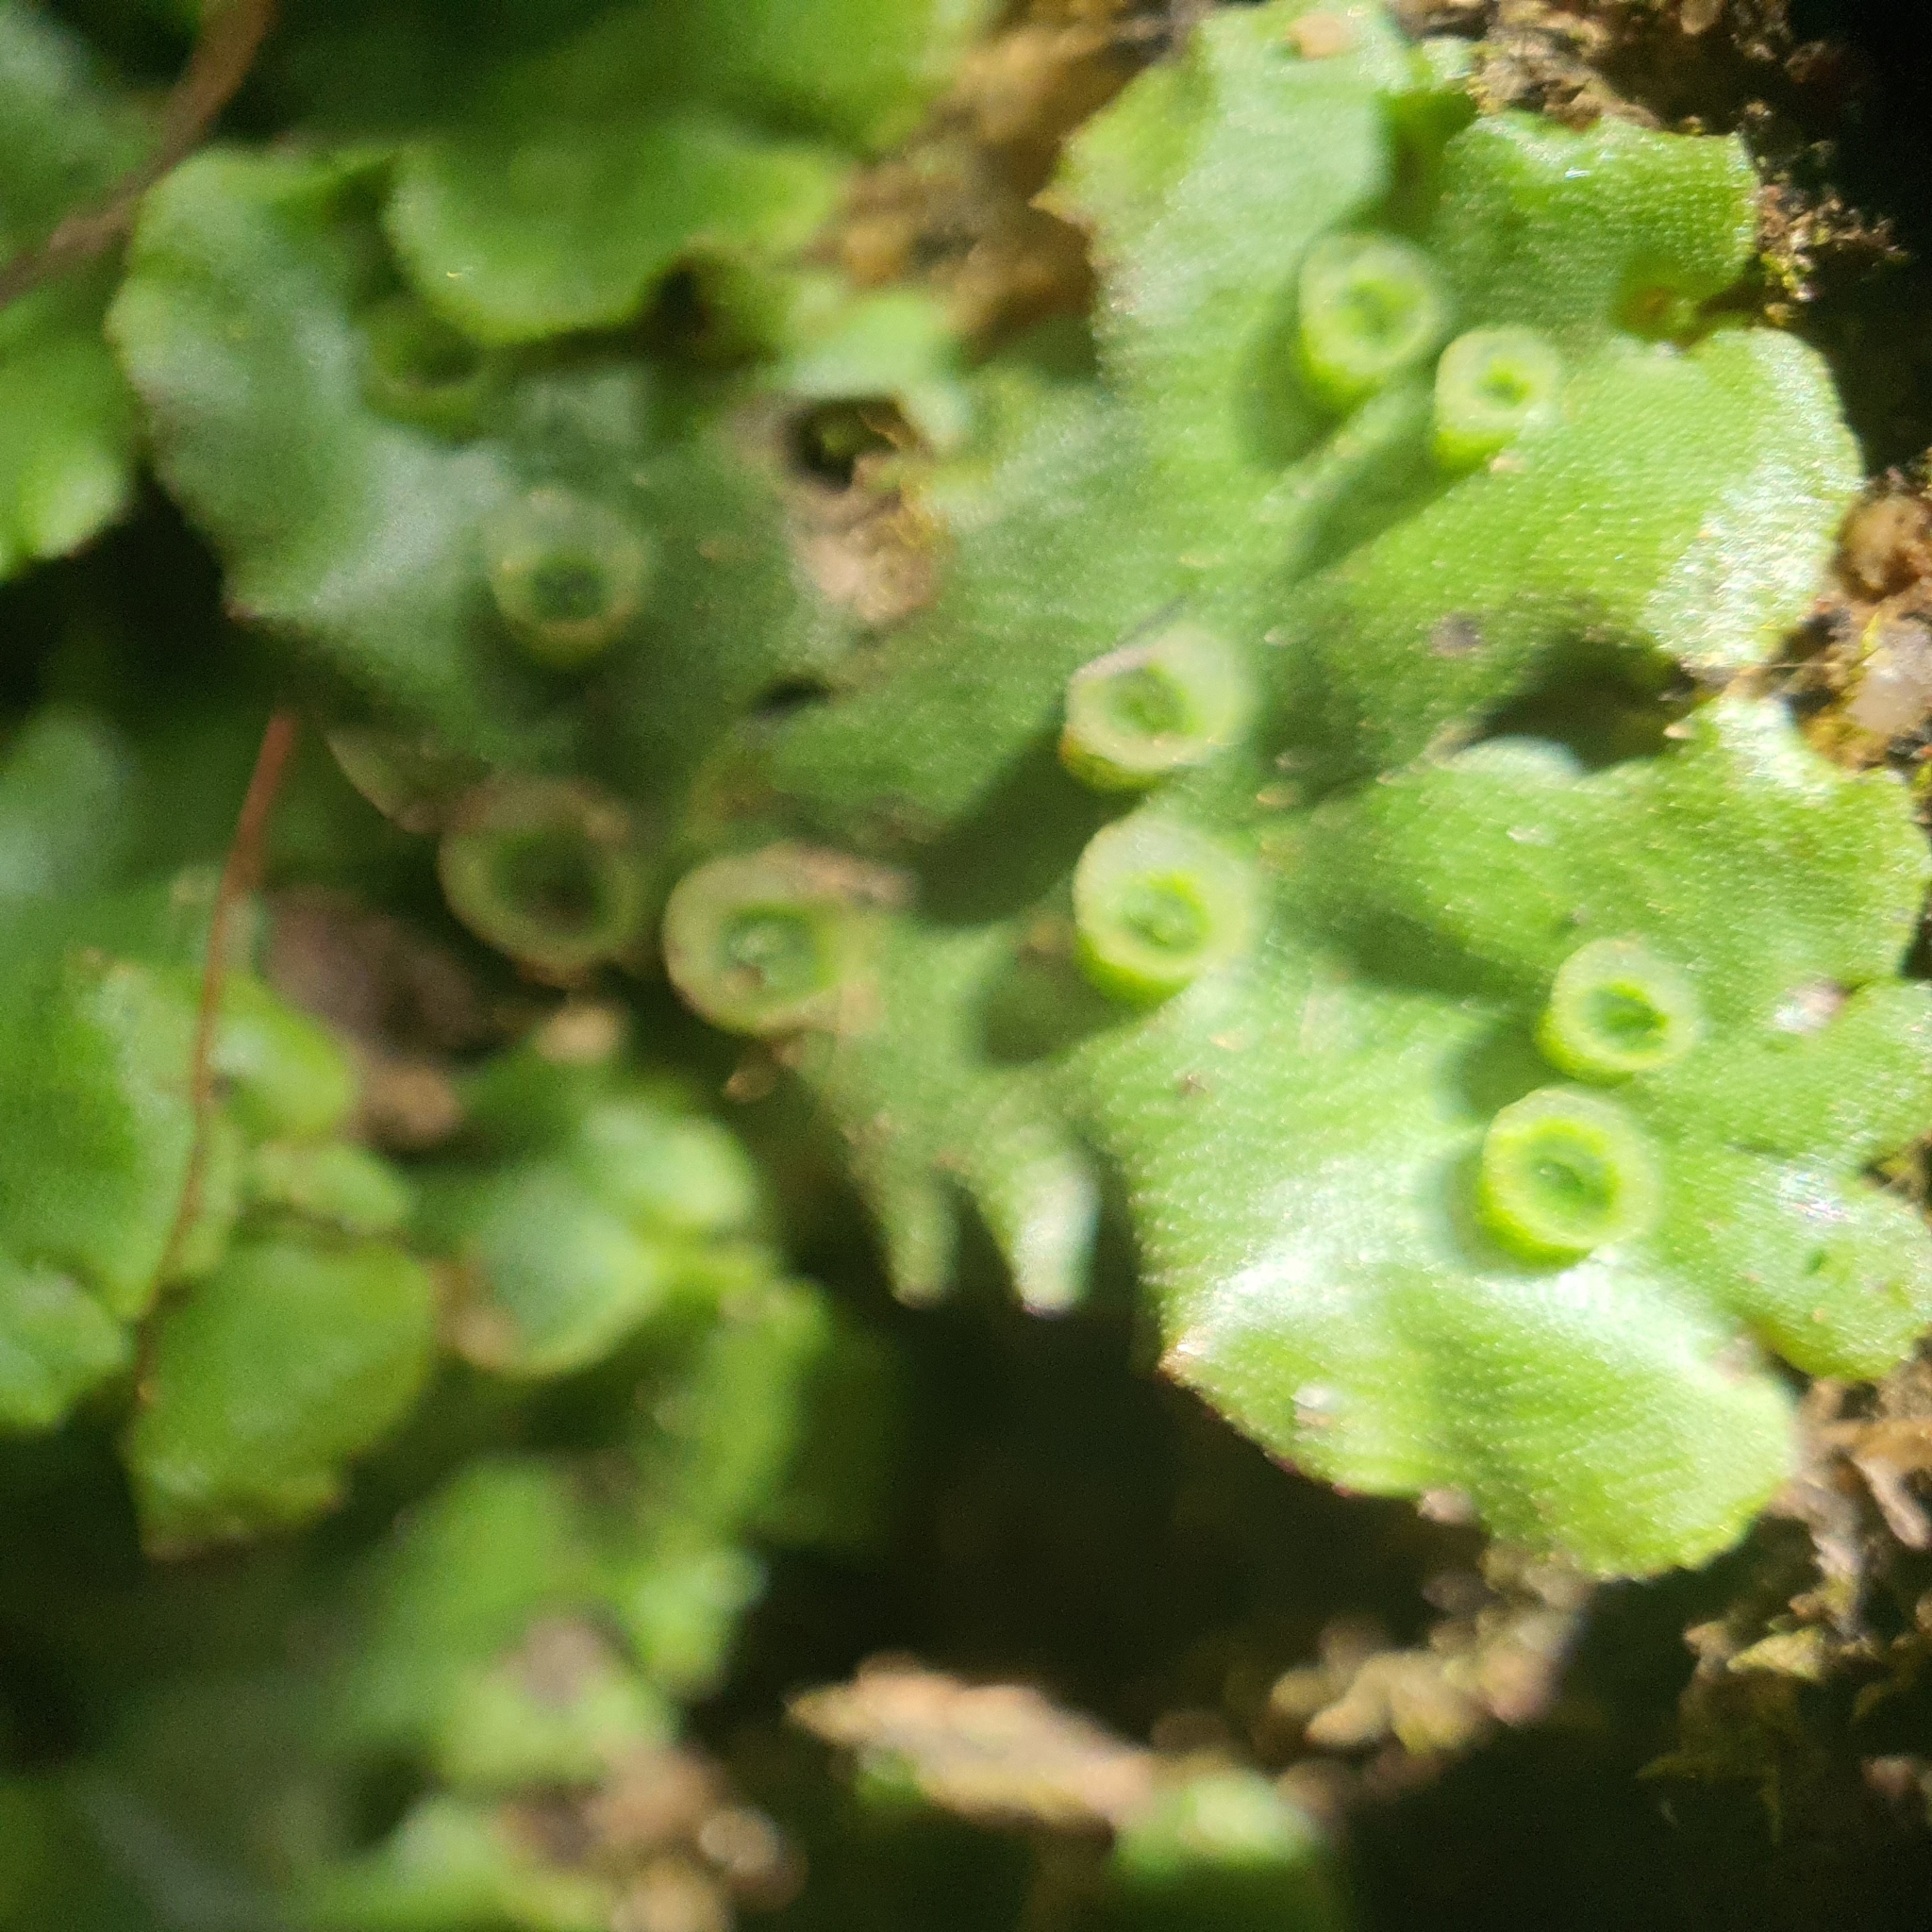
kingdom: Plantae
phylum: Marchantiophyta
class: Marchantiopsida
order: Marchantiales
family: Marchantiaceae
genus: Marchantia
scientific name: Marchantia polymorpha
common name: Common liverwort
